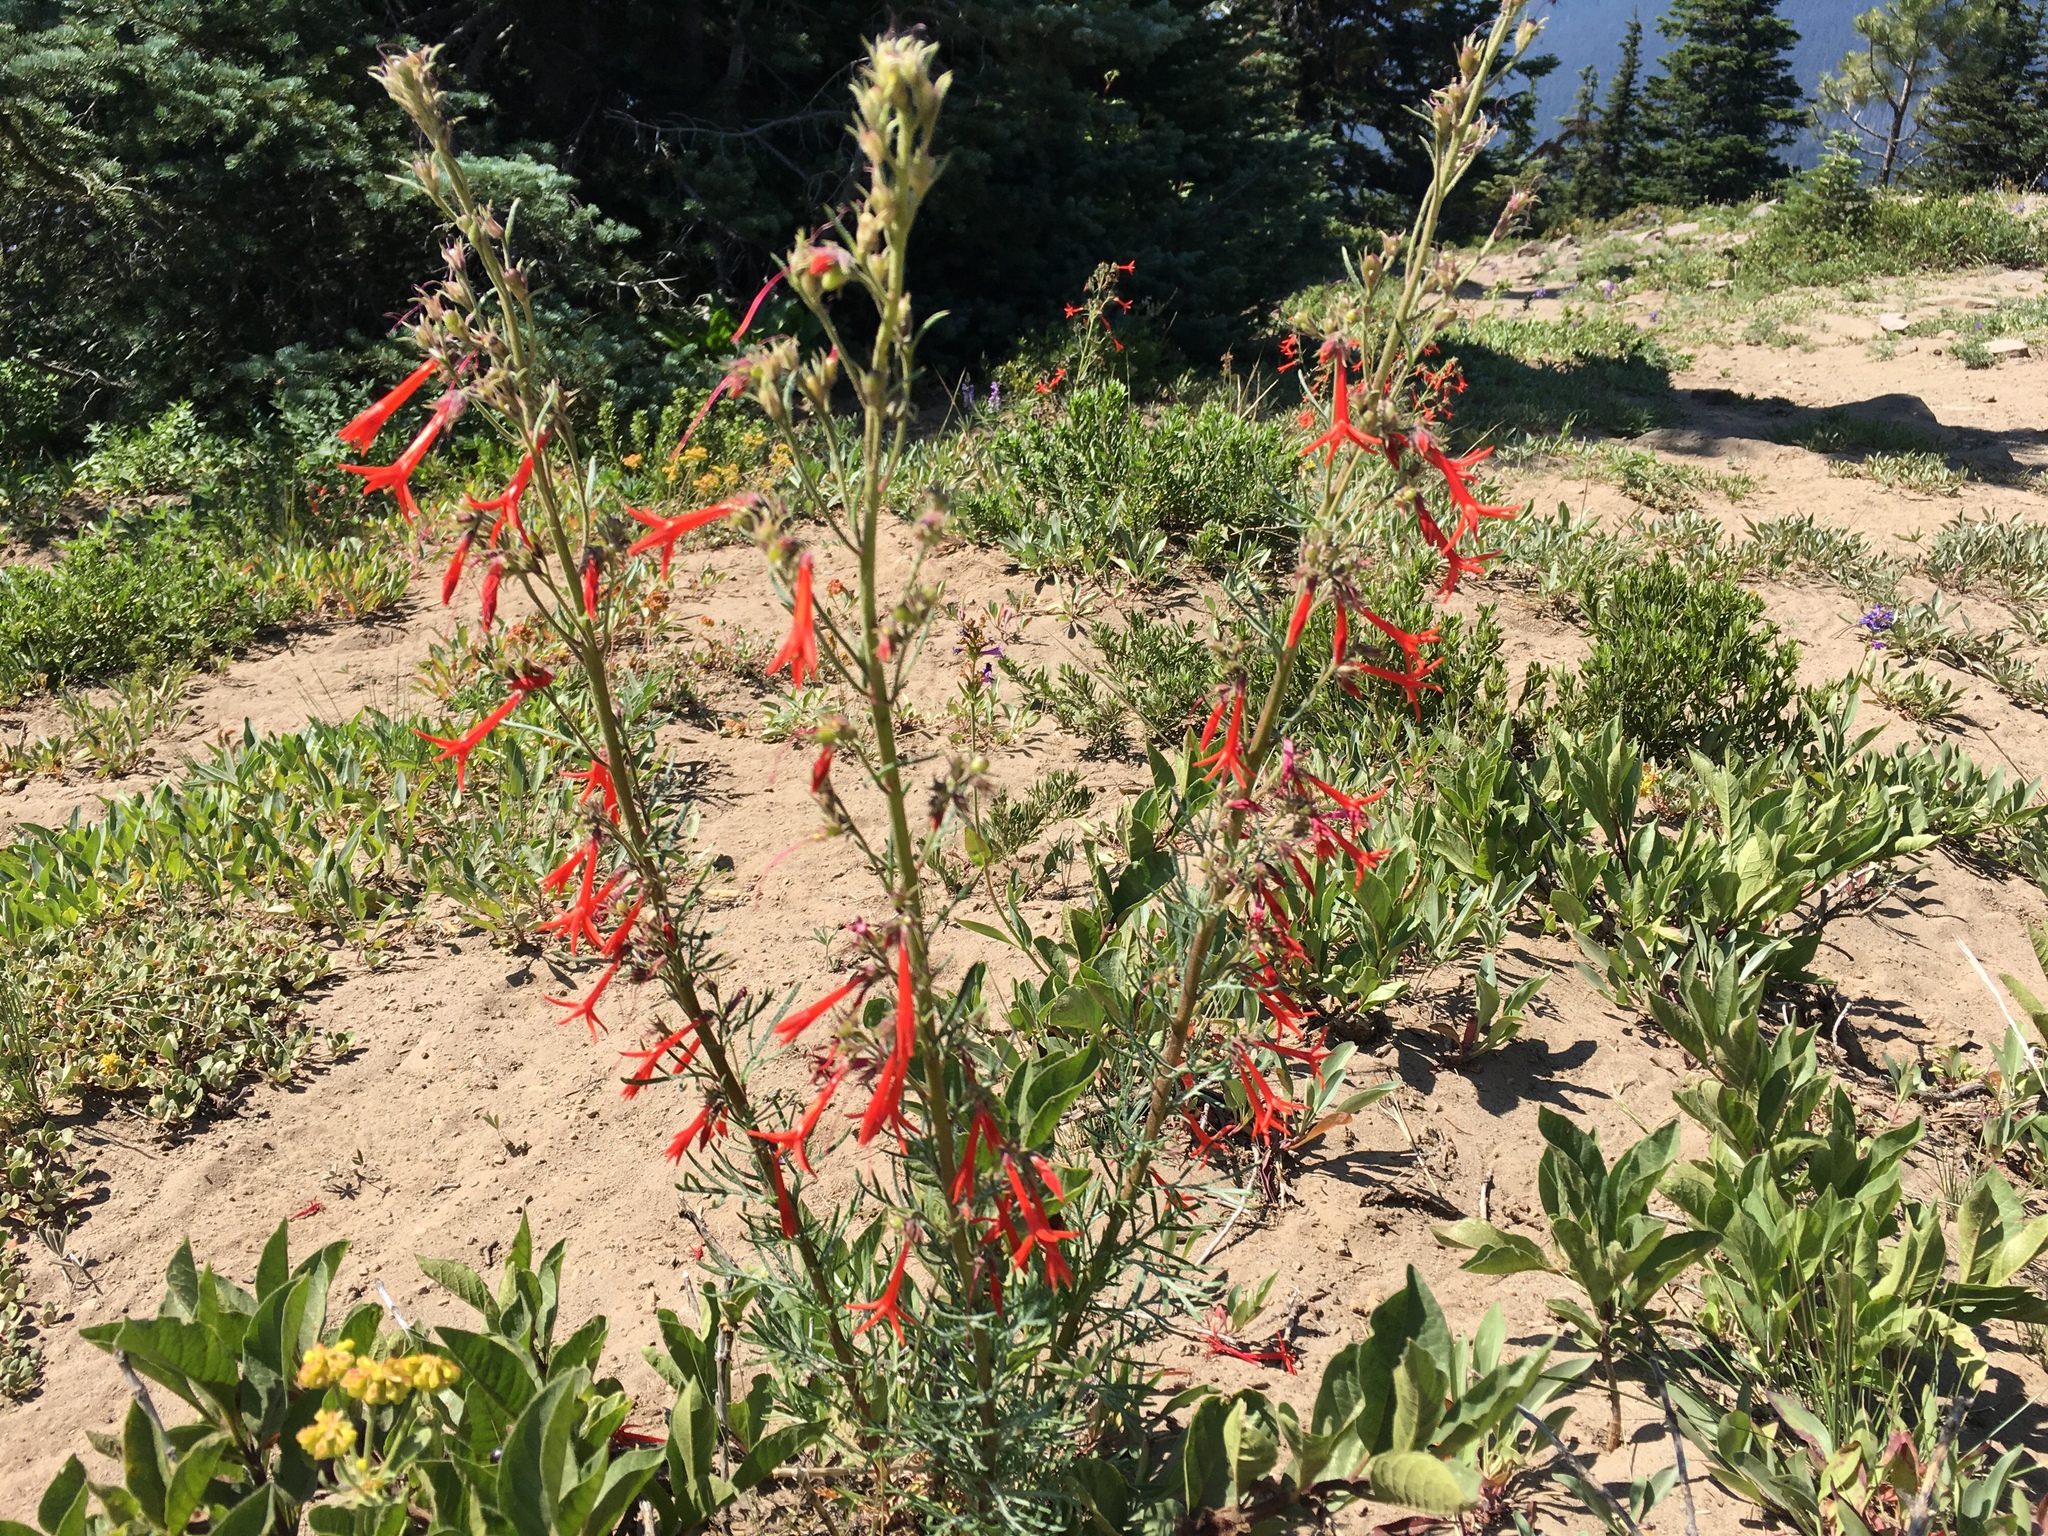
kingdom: Plantae
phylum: Tracheophyta
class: Magnoliopsida
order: Ericales
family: Polemoniaceae
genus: Ipomopsis
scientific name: Ipomopsis aggregata
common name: Scarlet gilia
